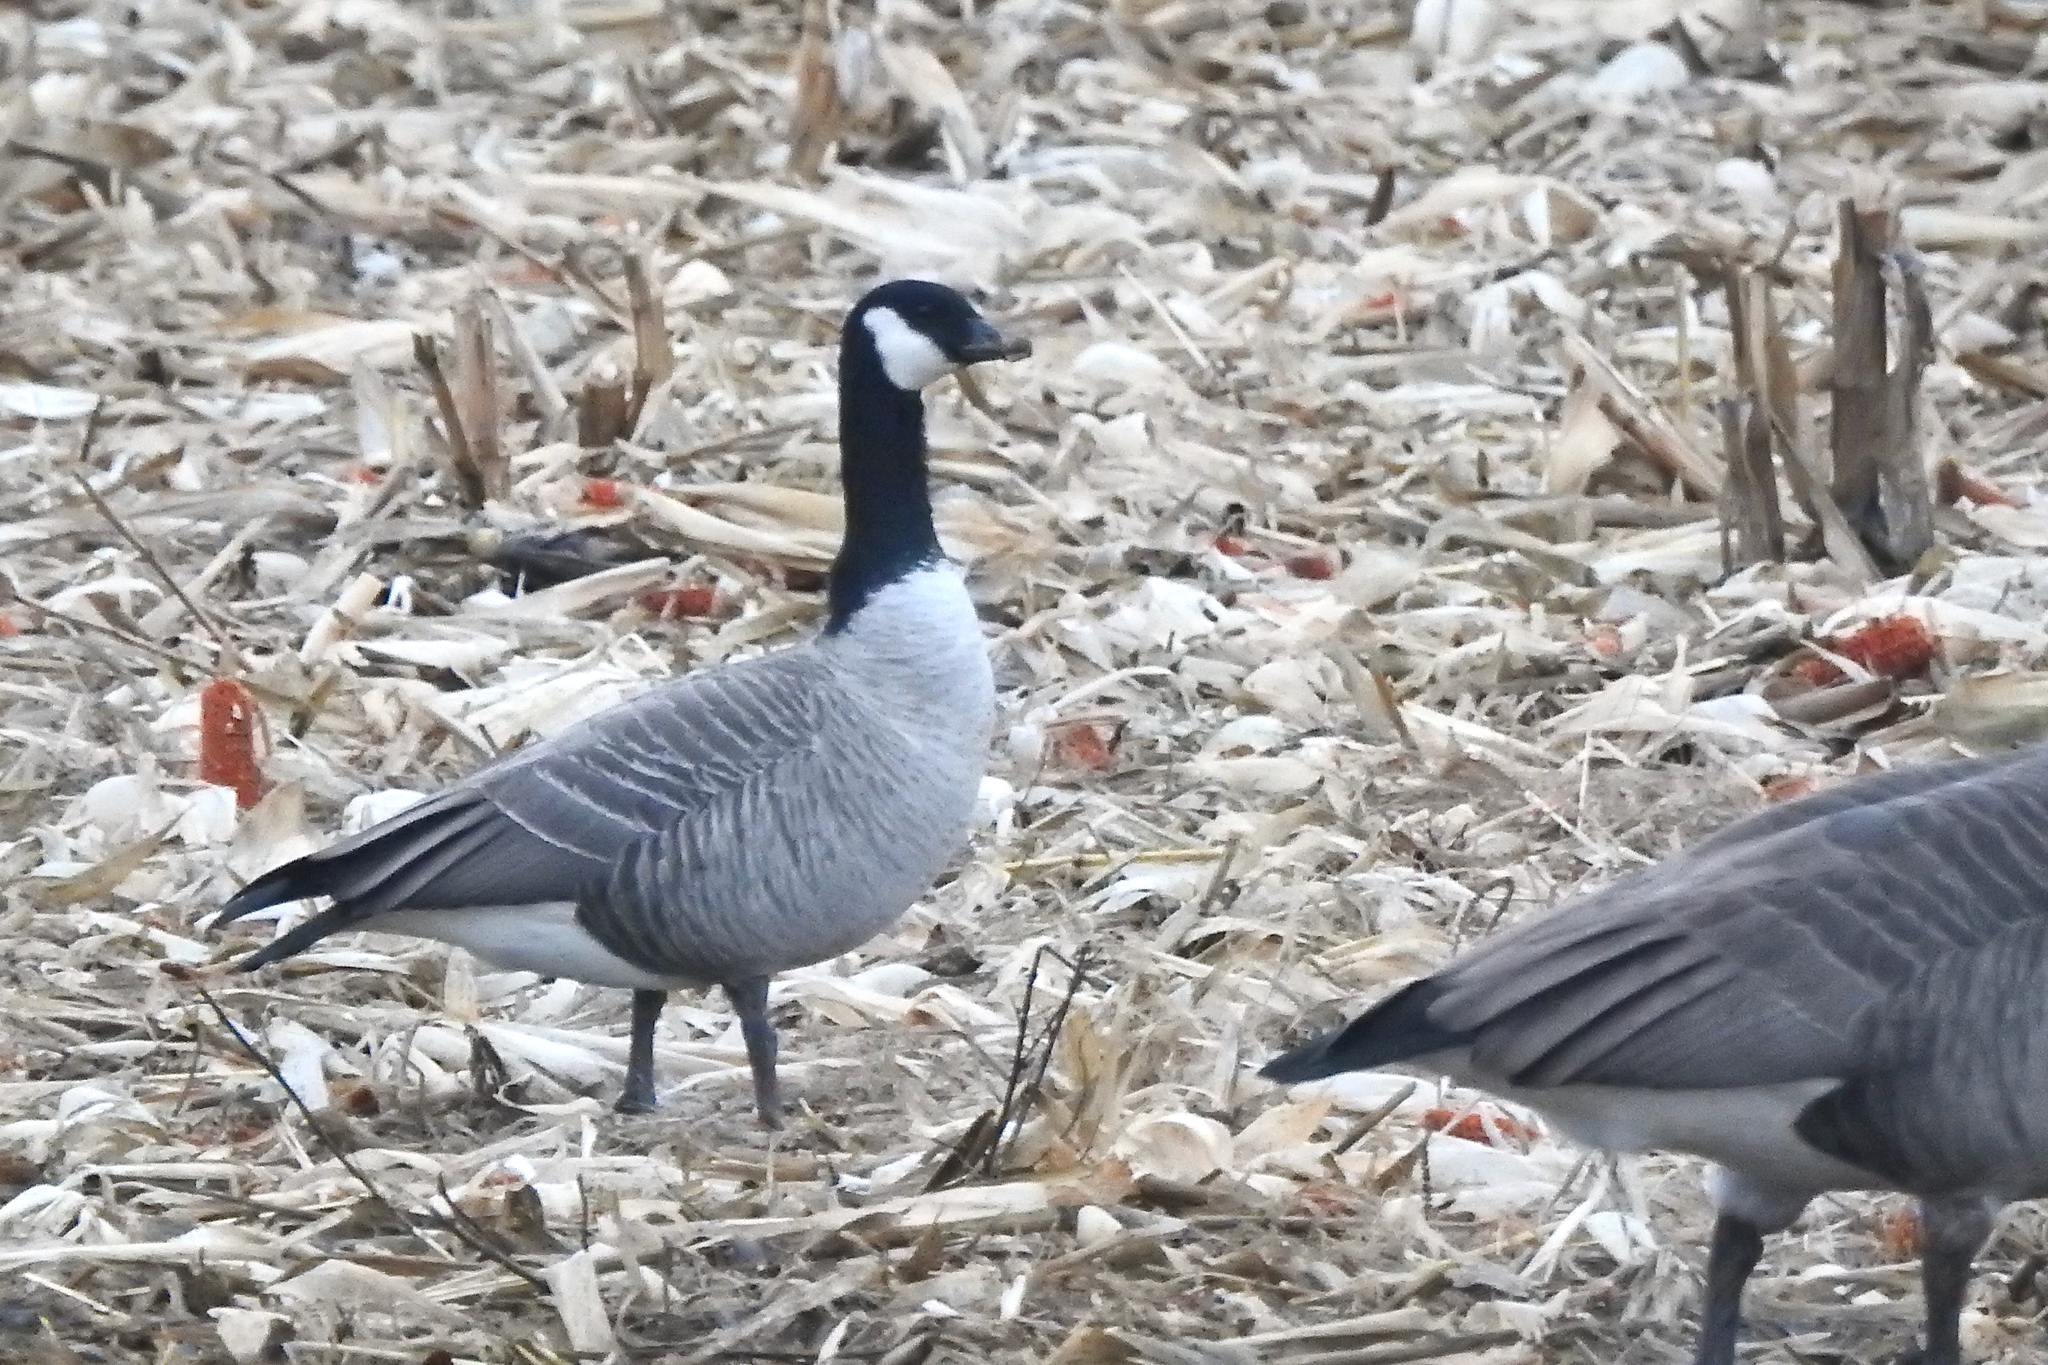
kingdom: Animalia
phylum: Chordata
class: Aves
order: Anseriformes
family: Anatidae
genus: Branta
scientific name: Branta hutchinsii
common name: Cackling goose
